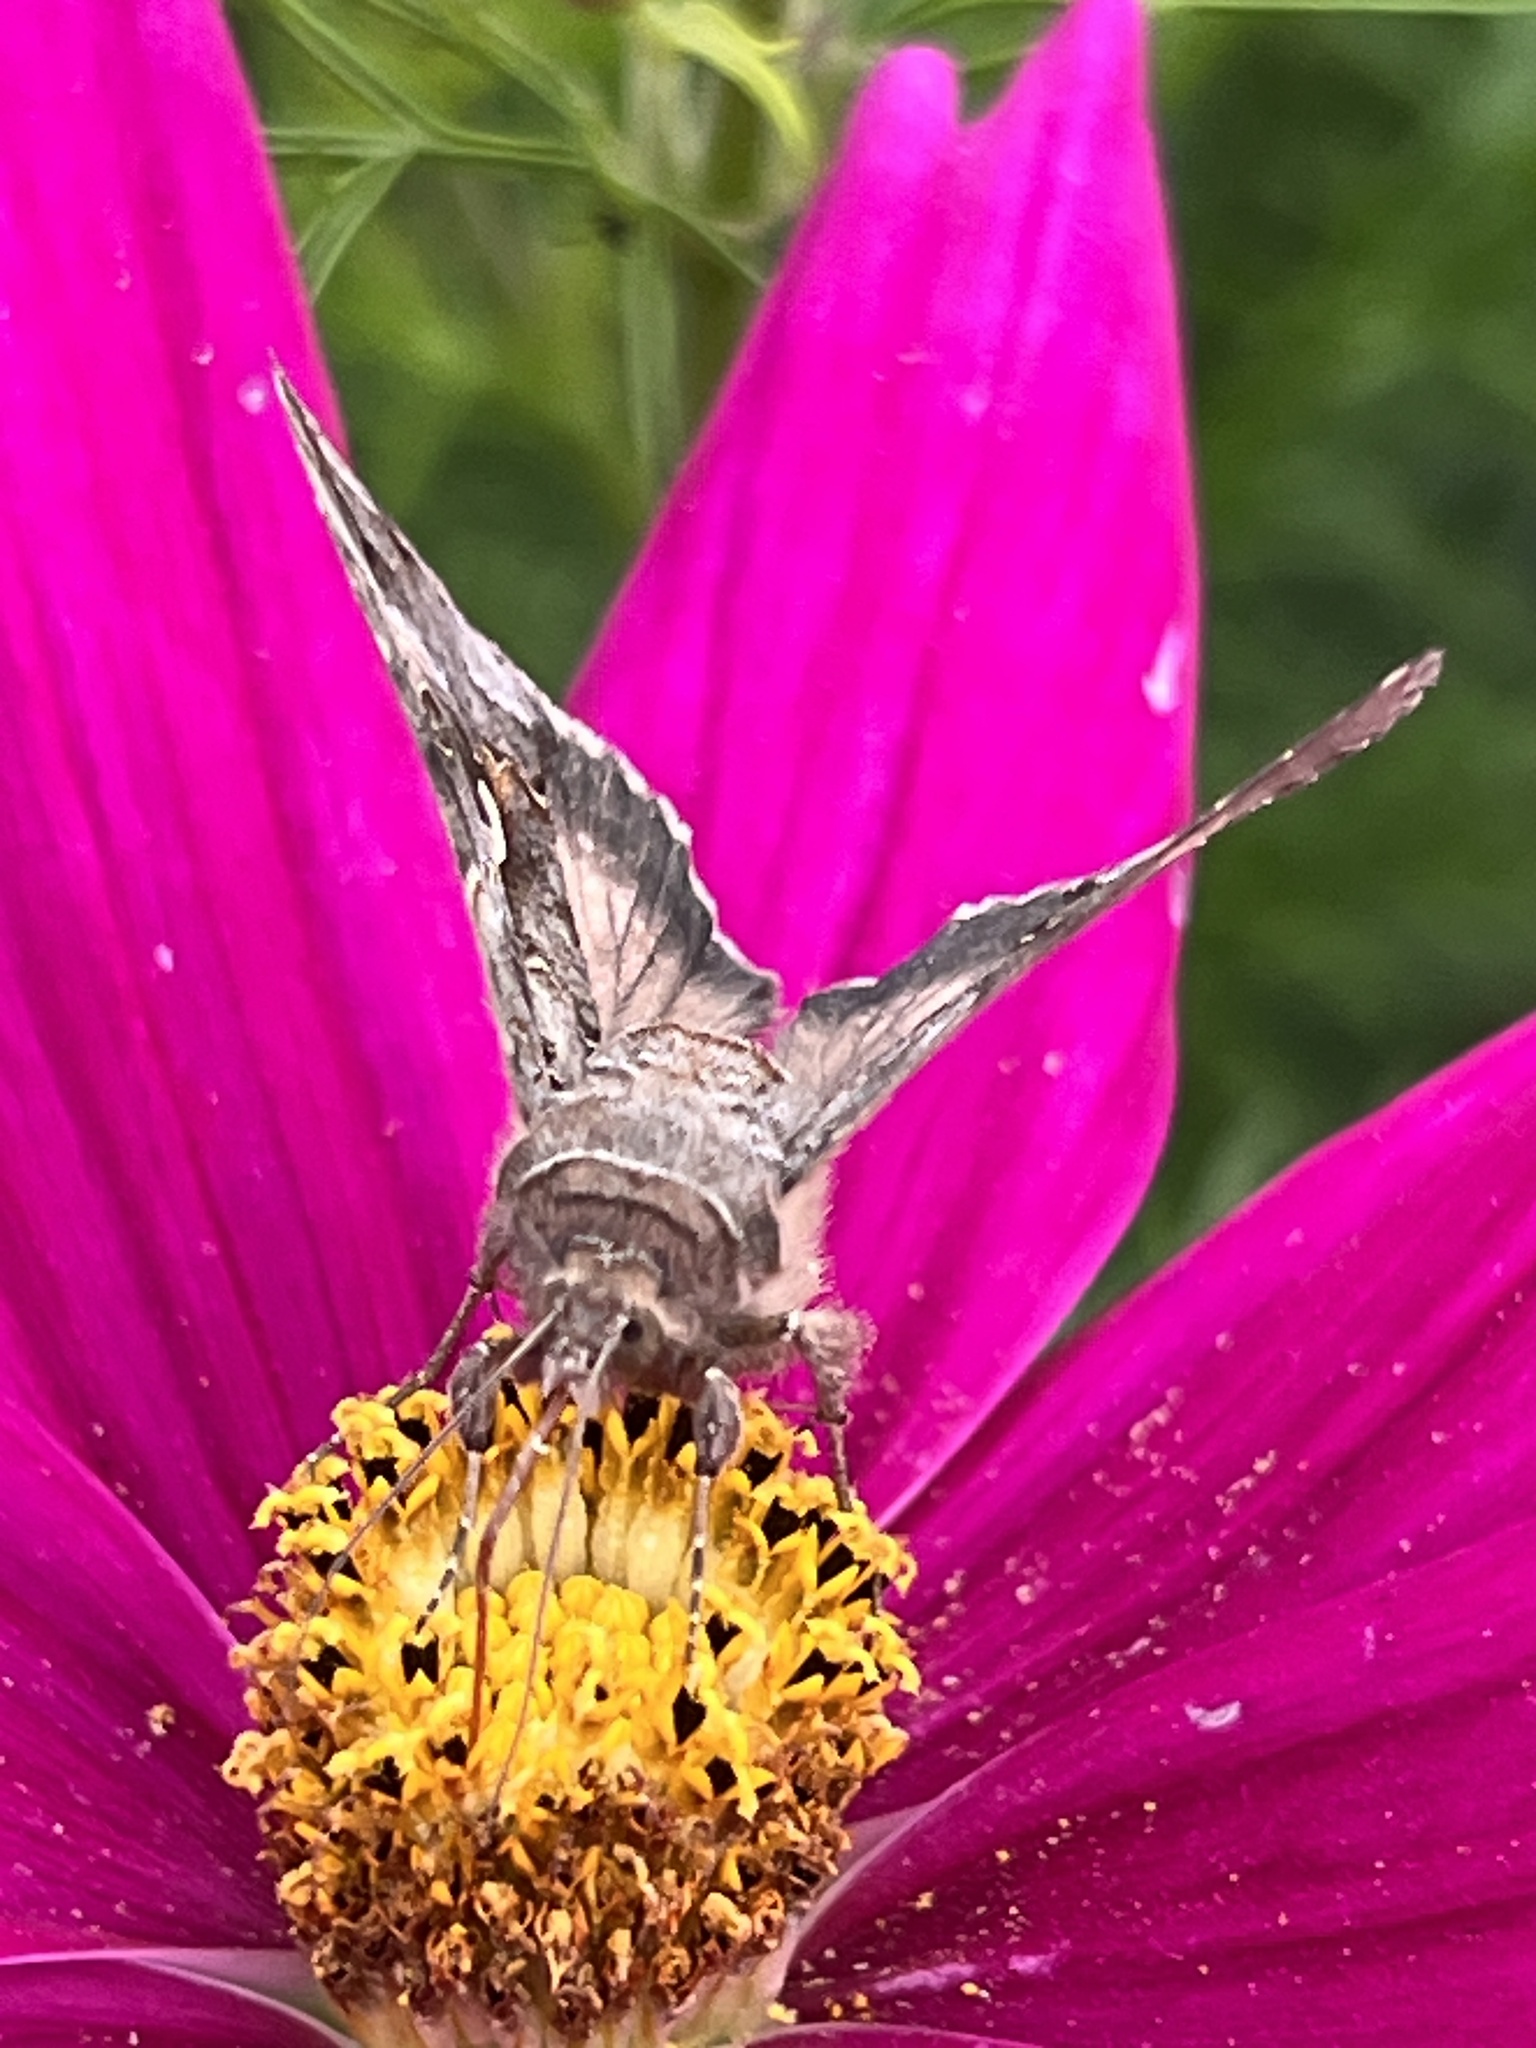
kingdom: Animalia
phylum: Arthropoda
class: Insecta
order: Lepidoptera
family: Noctuidae
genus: Autographa
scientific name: Autographa gamma
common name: Silver y
